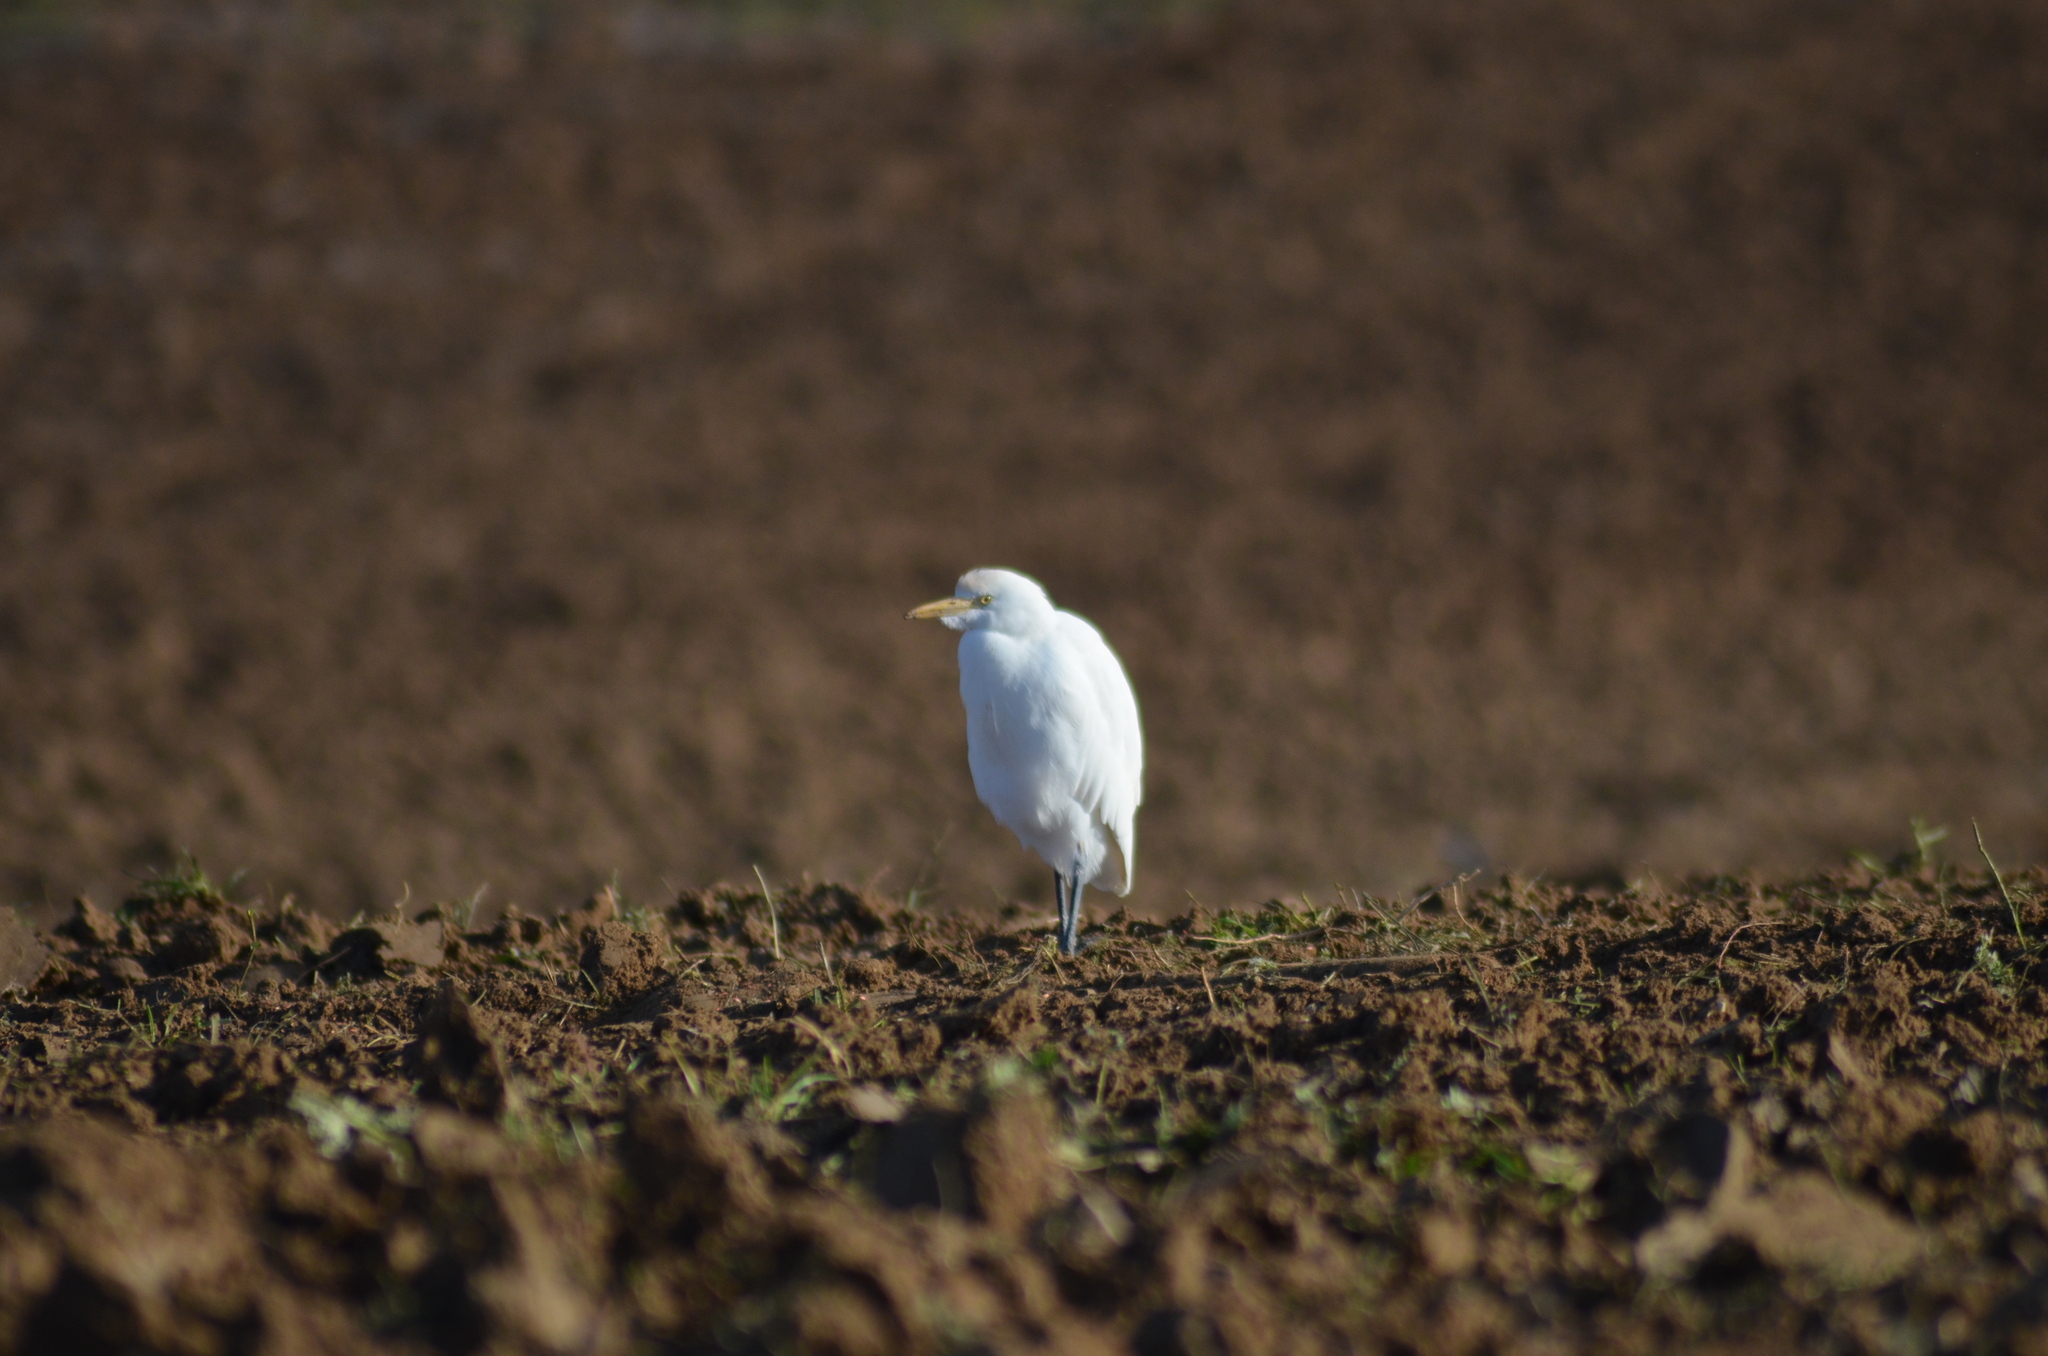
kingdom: Animalia
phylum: Chordata
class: Aves
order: Pelecaniformes
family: Ardeidae
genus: Bubulcus
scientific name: Bubulcus ibis
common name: Cattle egret
